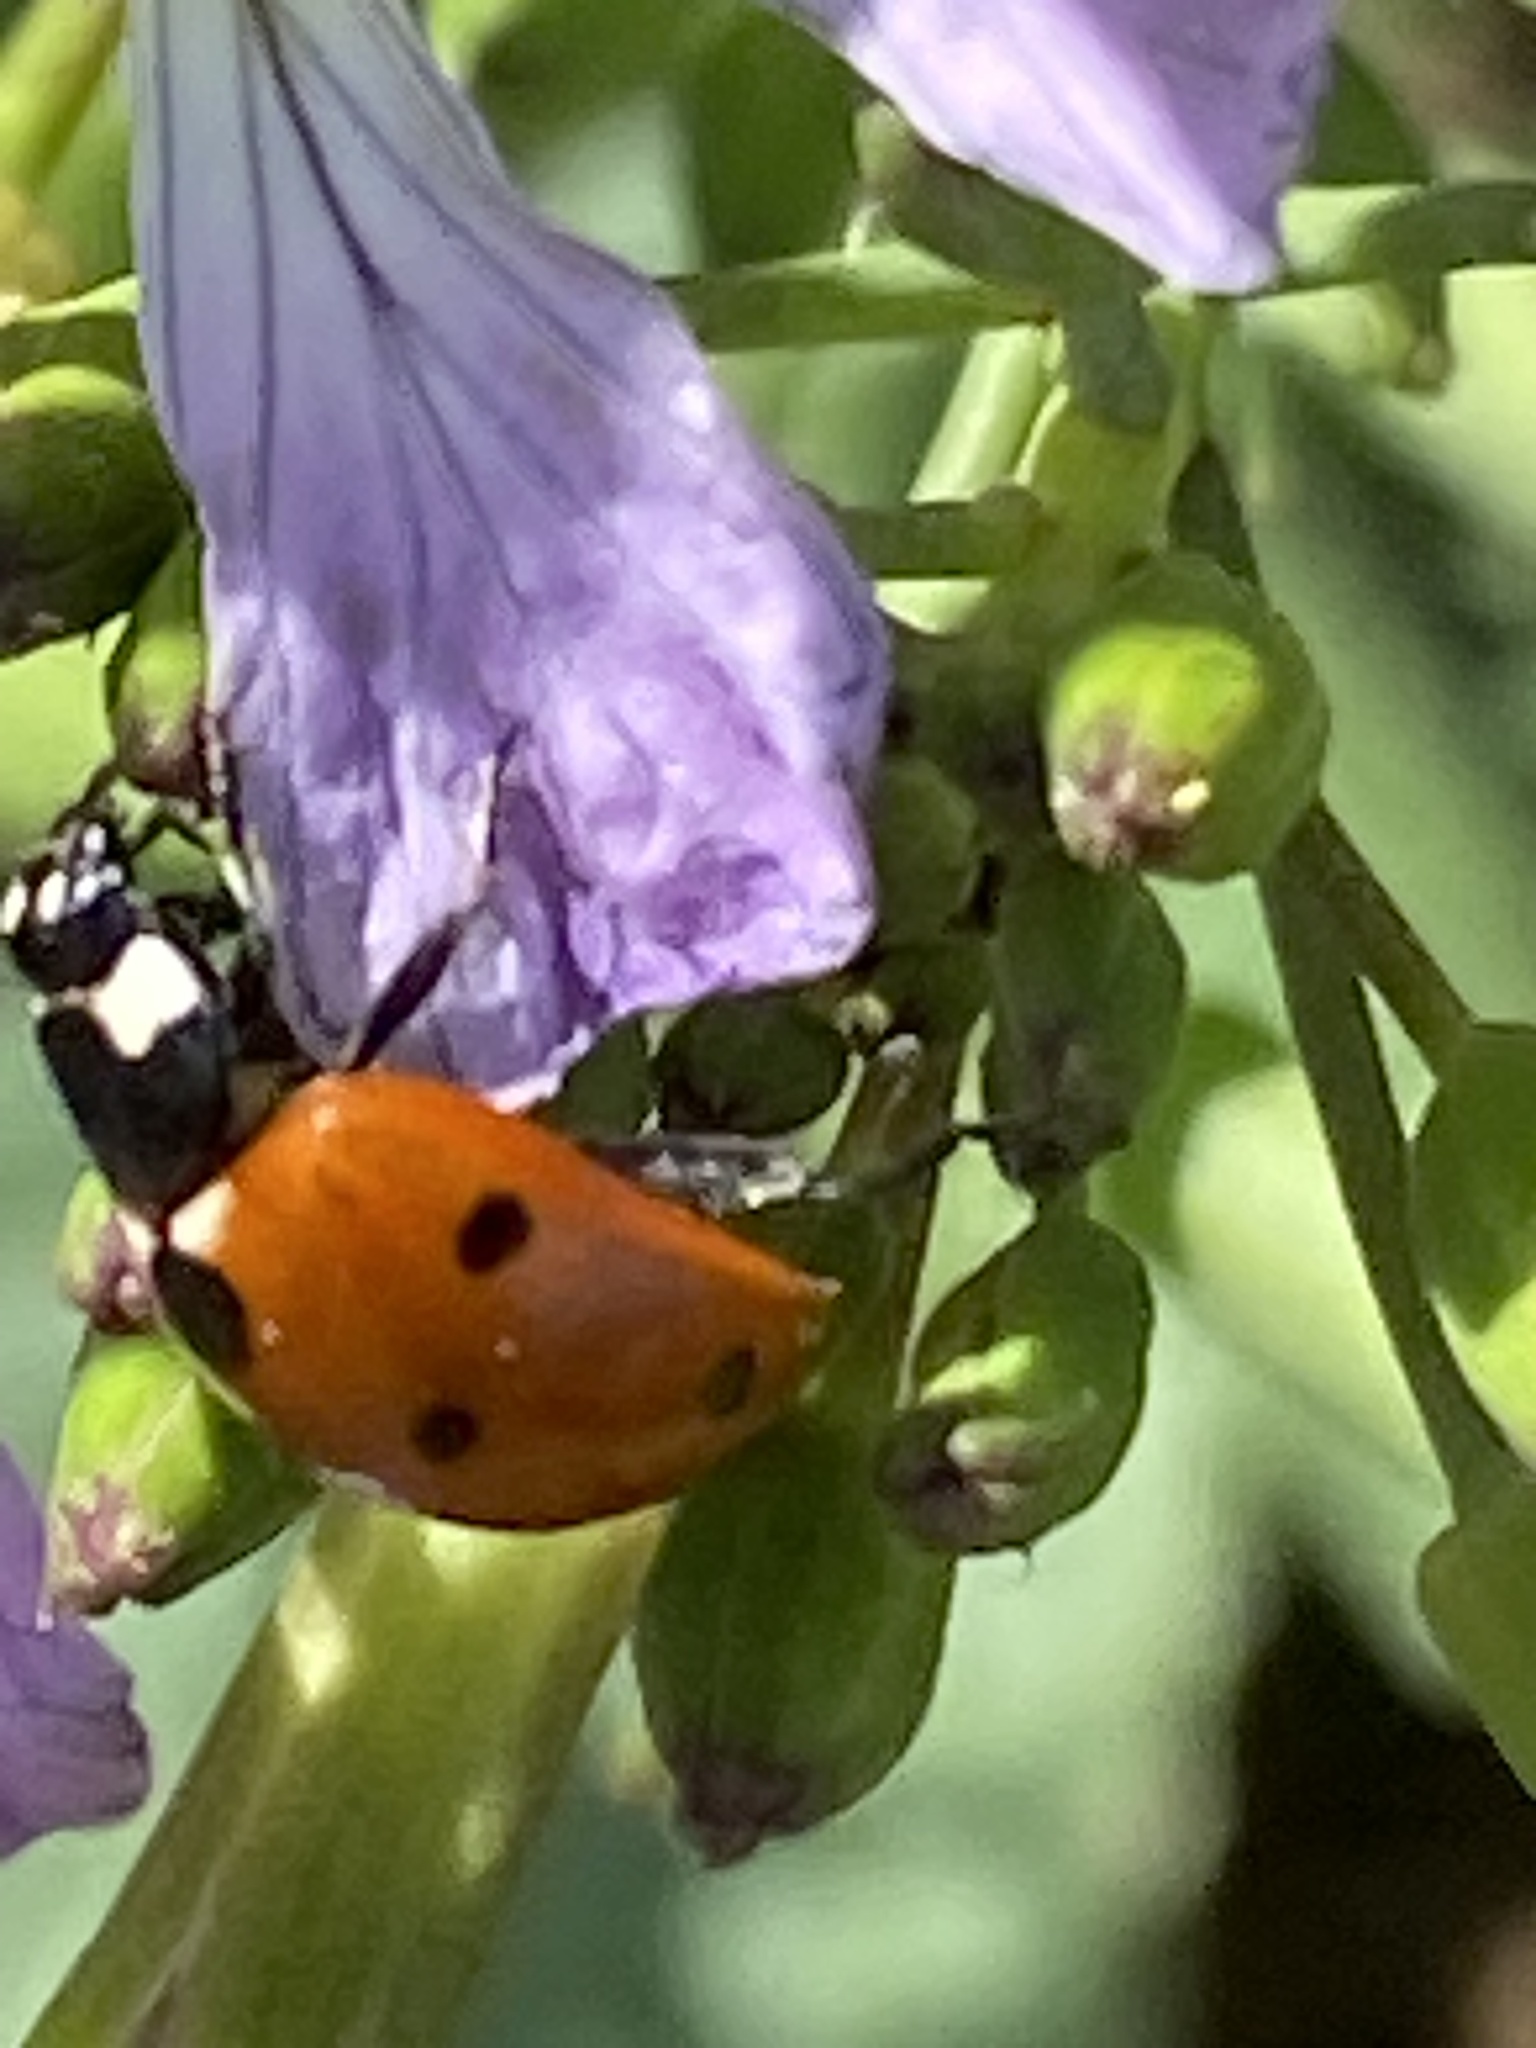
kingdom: Animalia
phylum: Arthropoda
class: Insecta
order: Coleoptera
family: Coccinellidae
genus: Coccinella
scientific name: Coccinella septempunctata
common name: Sevenspotted lady beetle
